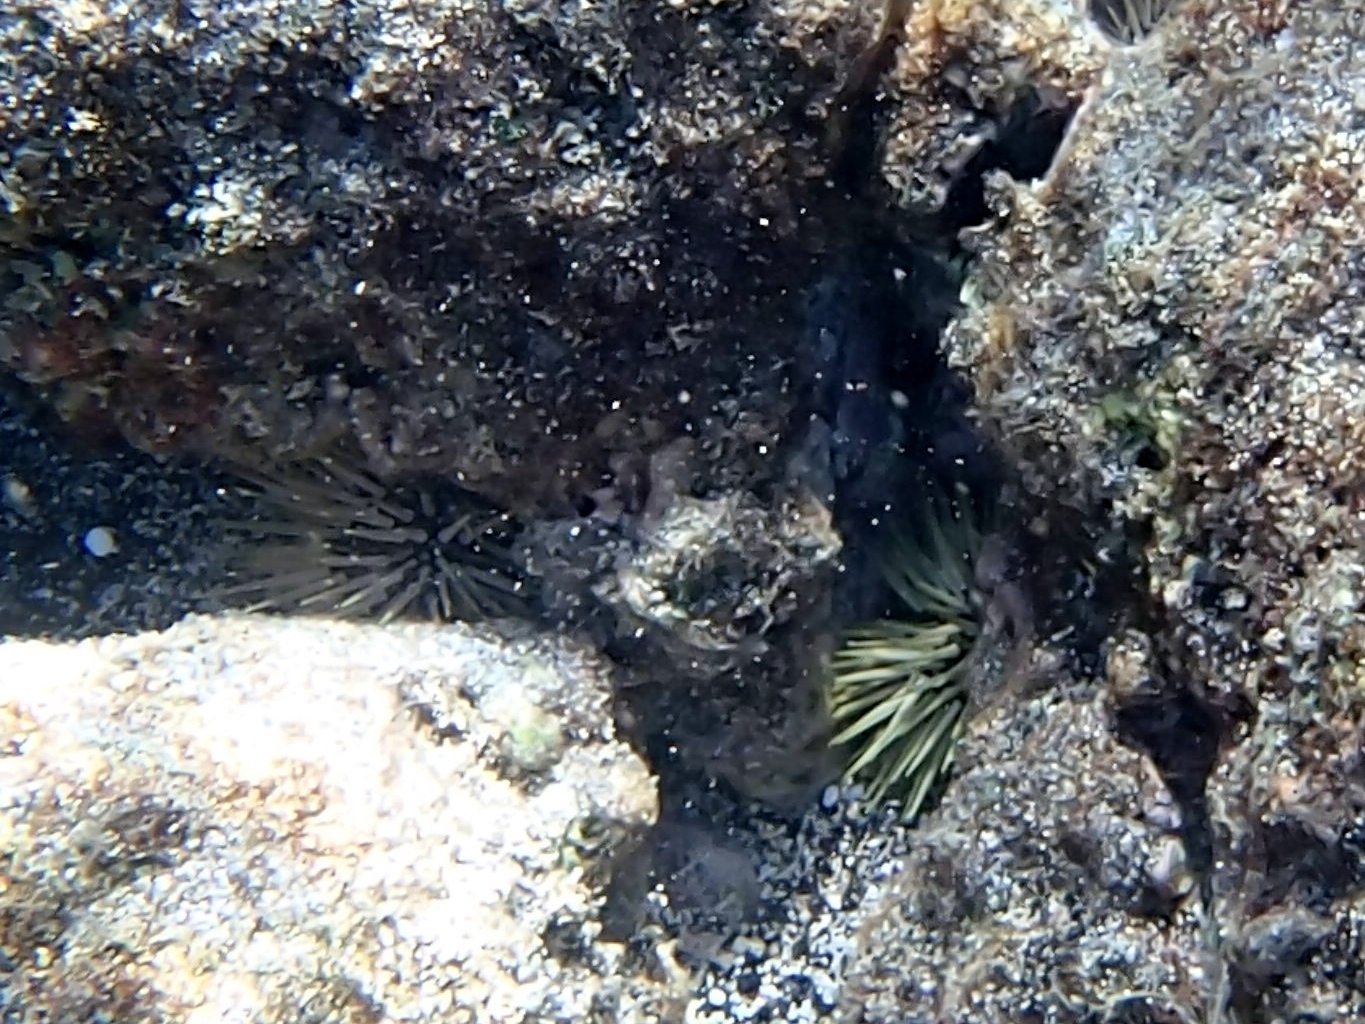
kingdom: Animalia
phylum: Echinodermata
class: Echinoidea
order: Camarodonta
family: Echinometridae
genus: Echinometra
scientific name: Echinometra mathaei
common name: Rock-boring urchin
